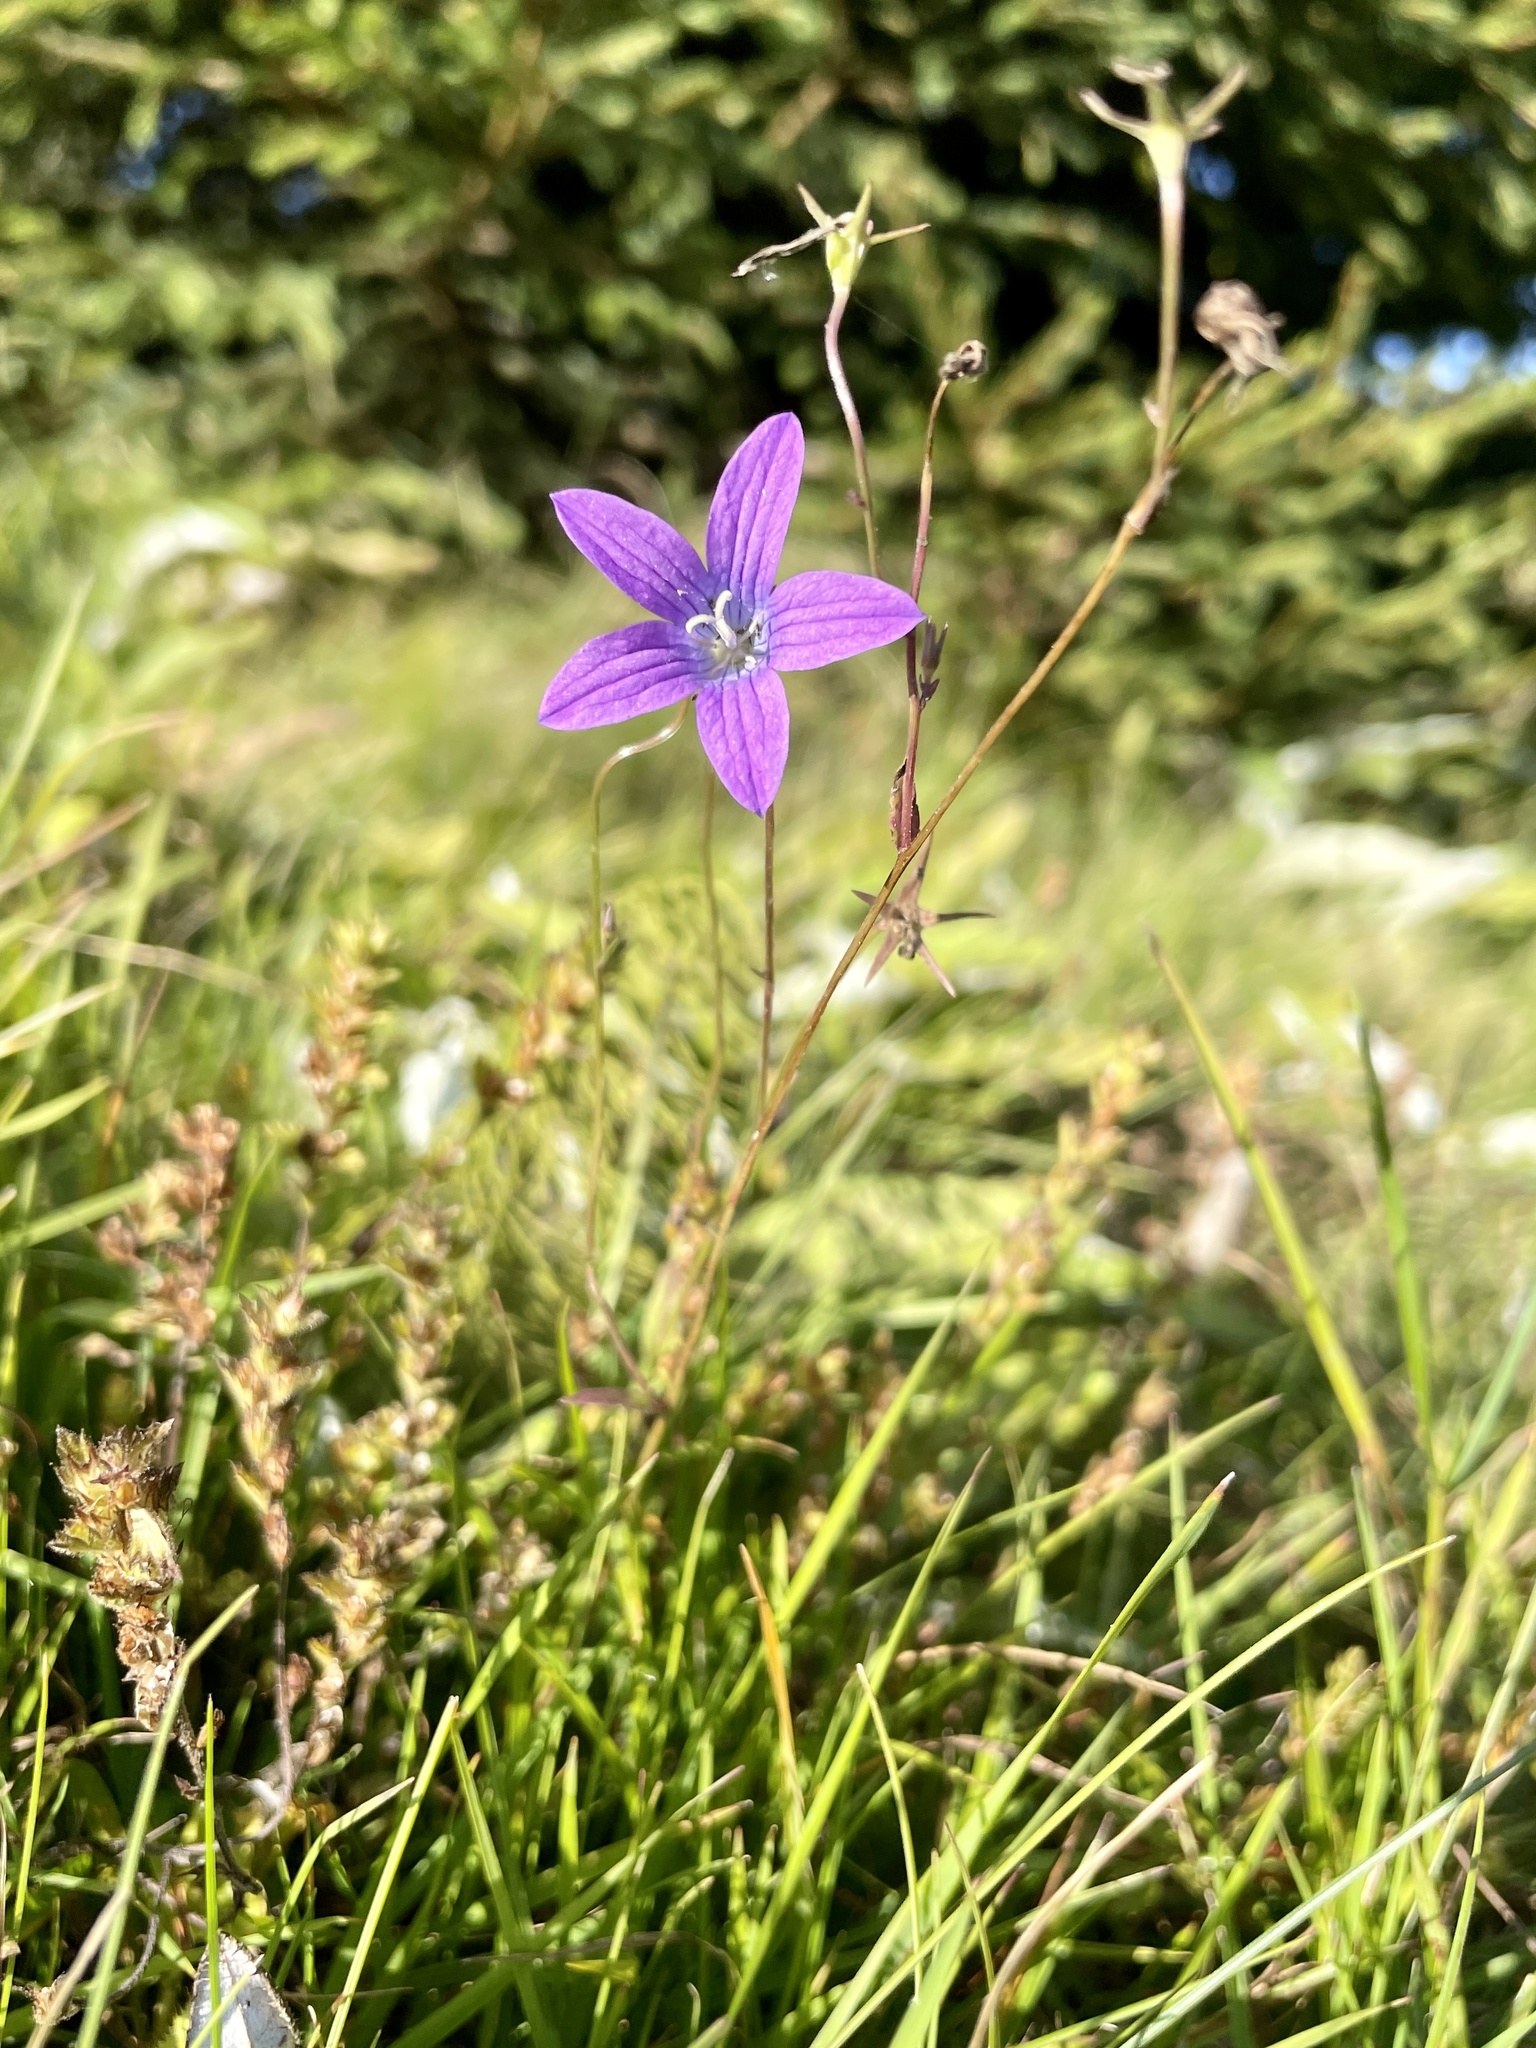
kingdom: Plantae
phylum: Tracheophyta
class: Magnoliopsida
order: Asterales
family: Campanulaceae
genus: Campanula
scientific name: Campanula patula
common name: Spreading bellflower
